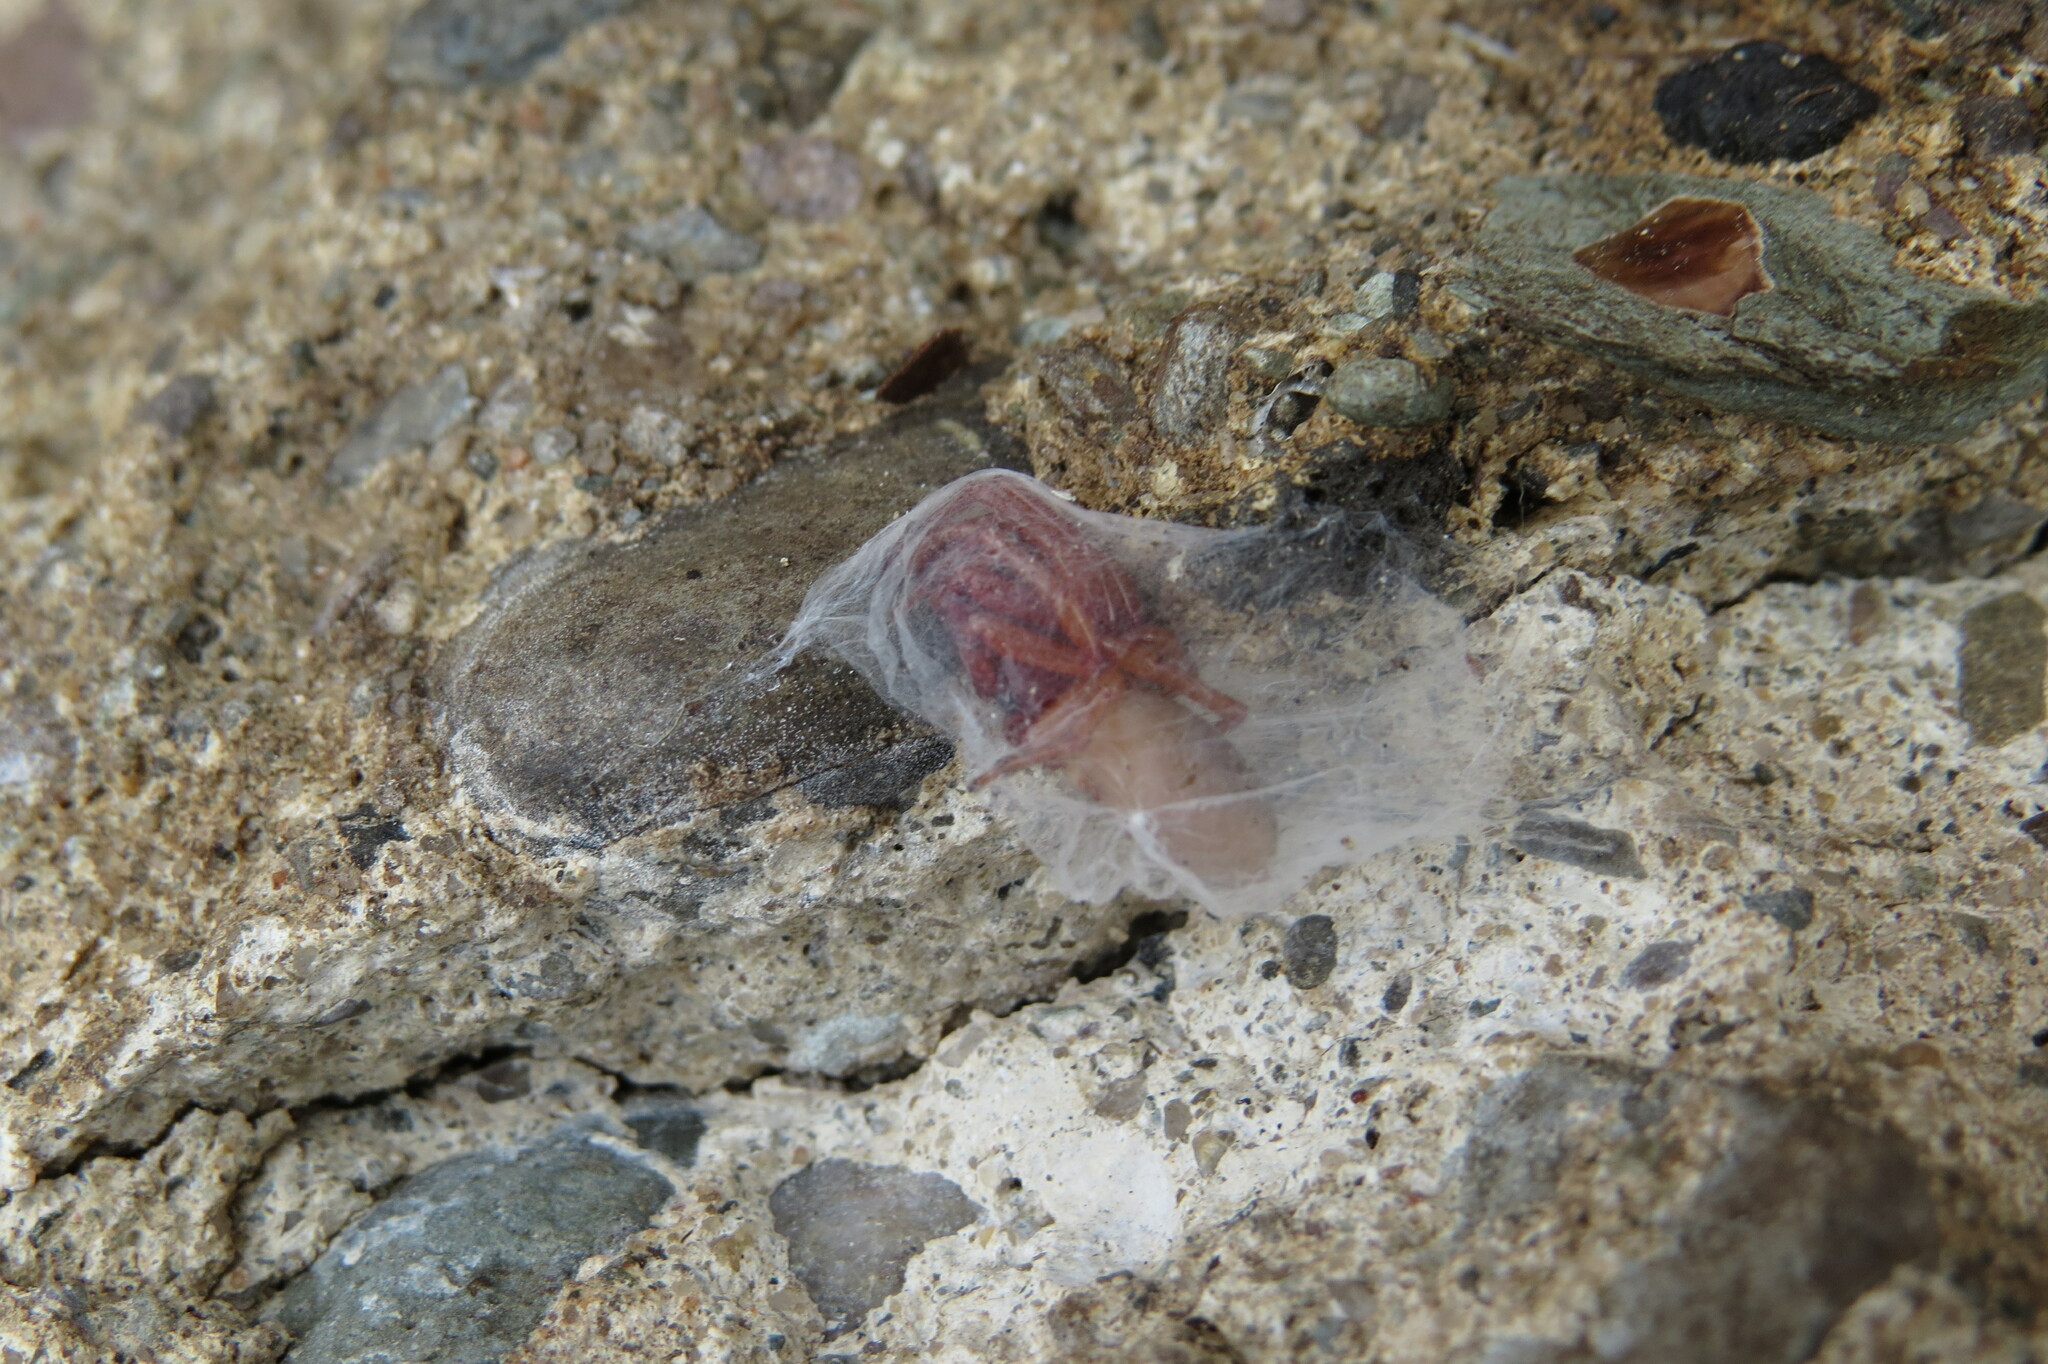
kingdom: Animalia
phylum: Arthropoda
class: Arachnida
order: Araneae
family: Dysderidae
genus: Dysdera
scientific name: Dysdera crocata
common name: Woodlouse spider
